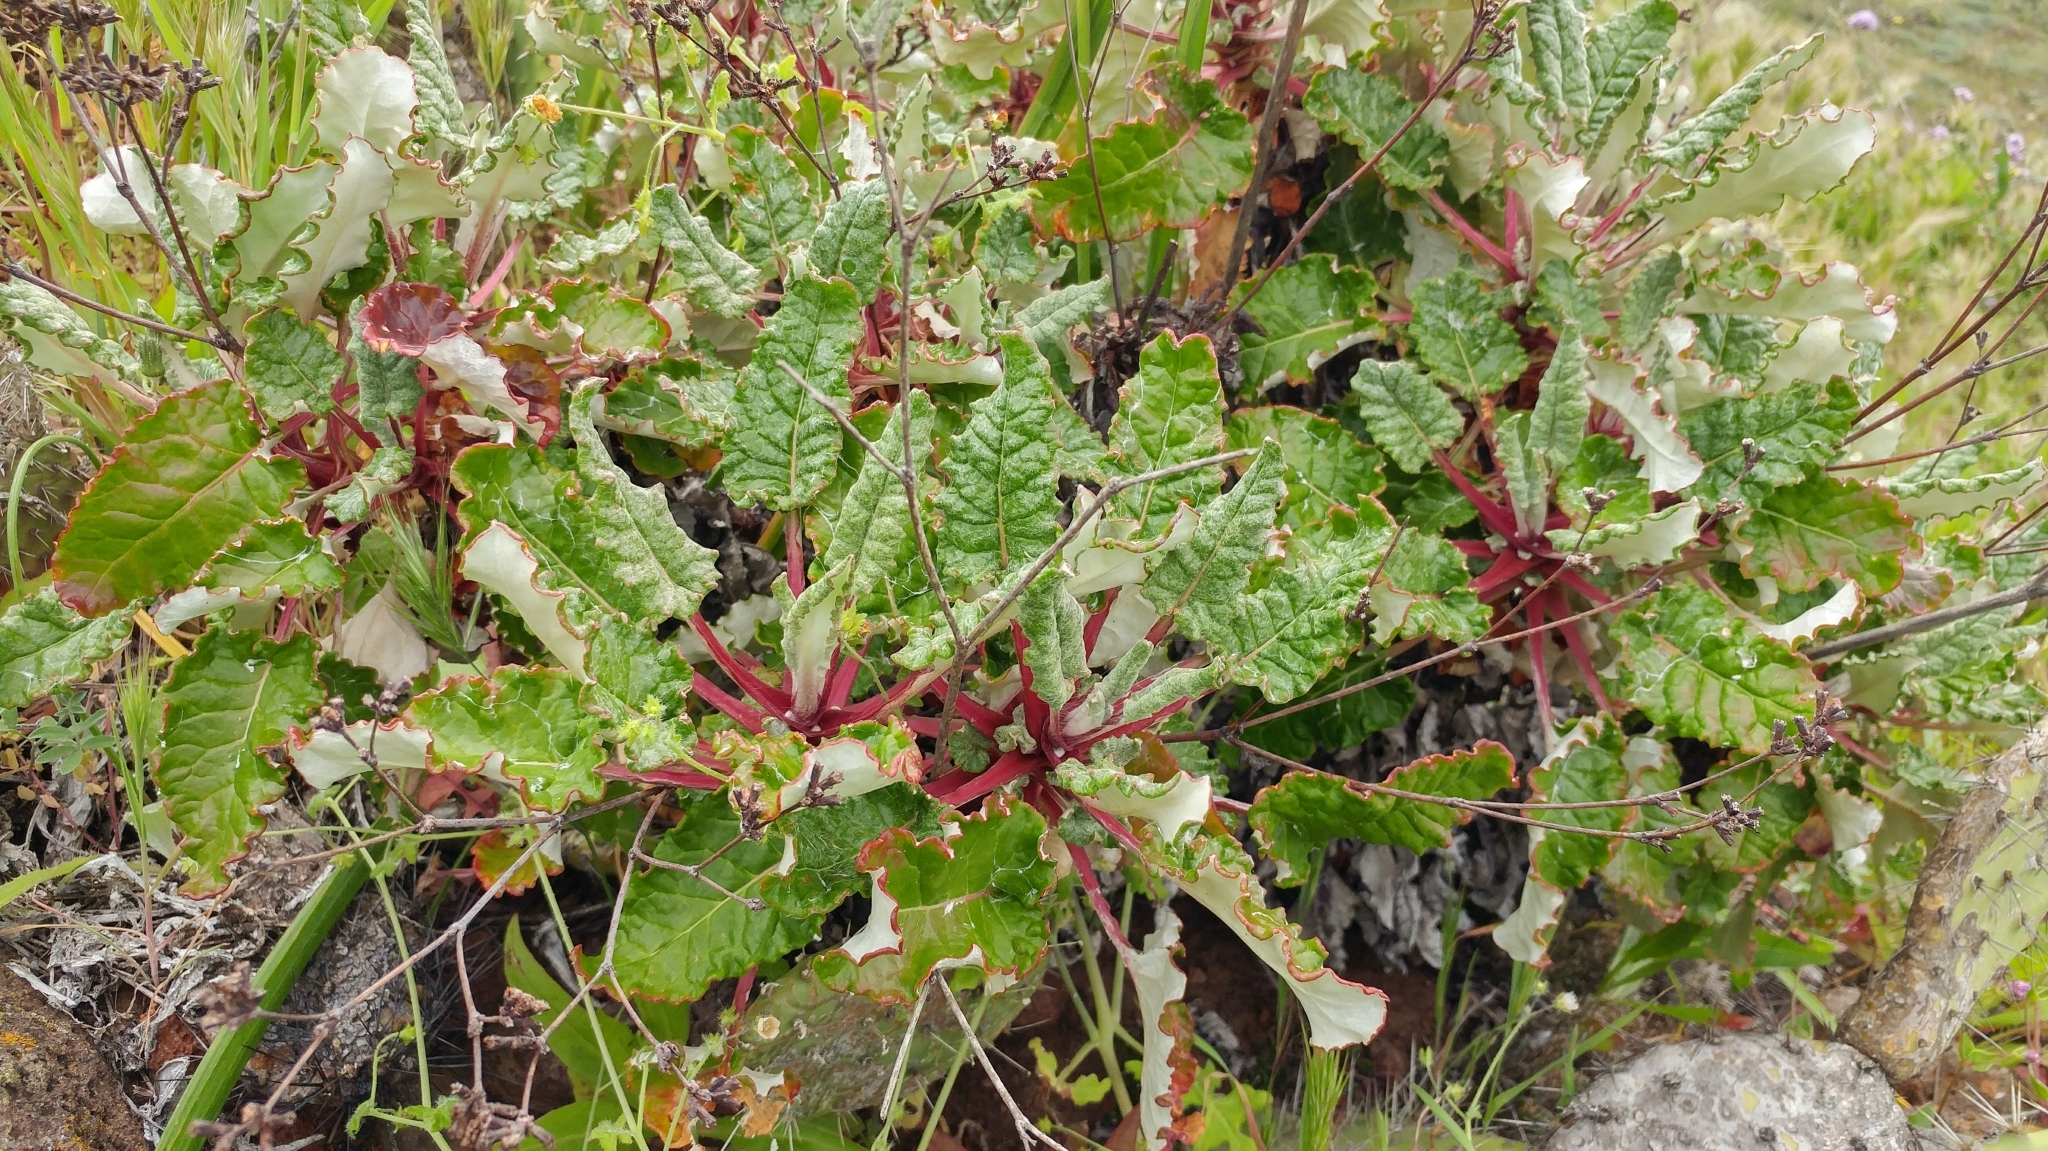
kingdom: Plantae
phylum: Tracheophyta
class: Magnoliopsida
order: Caryophyllales
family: Polygonaceae
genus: Eriogonum
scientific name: Eriogonum grande
